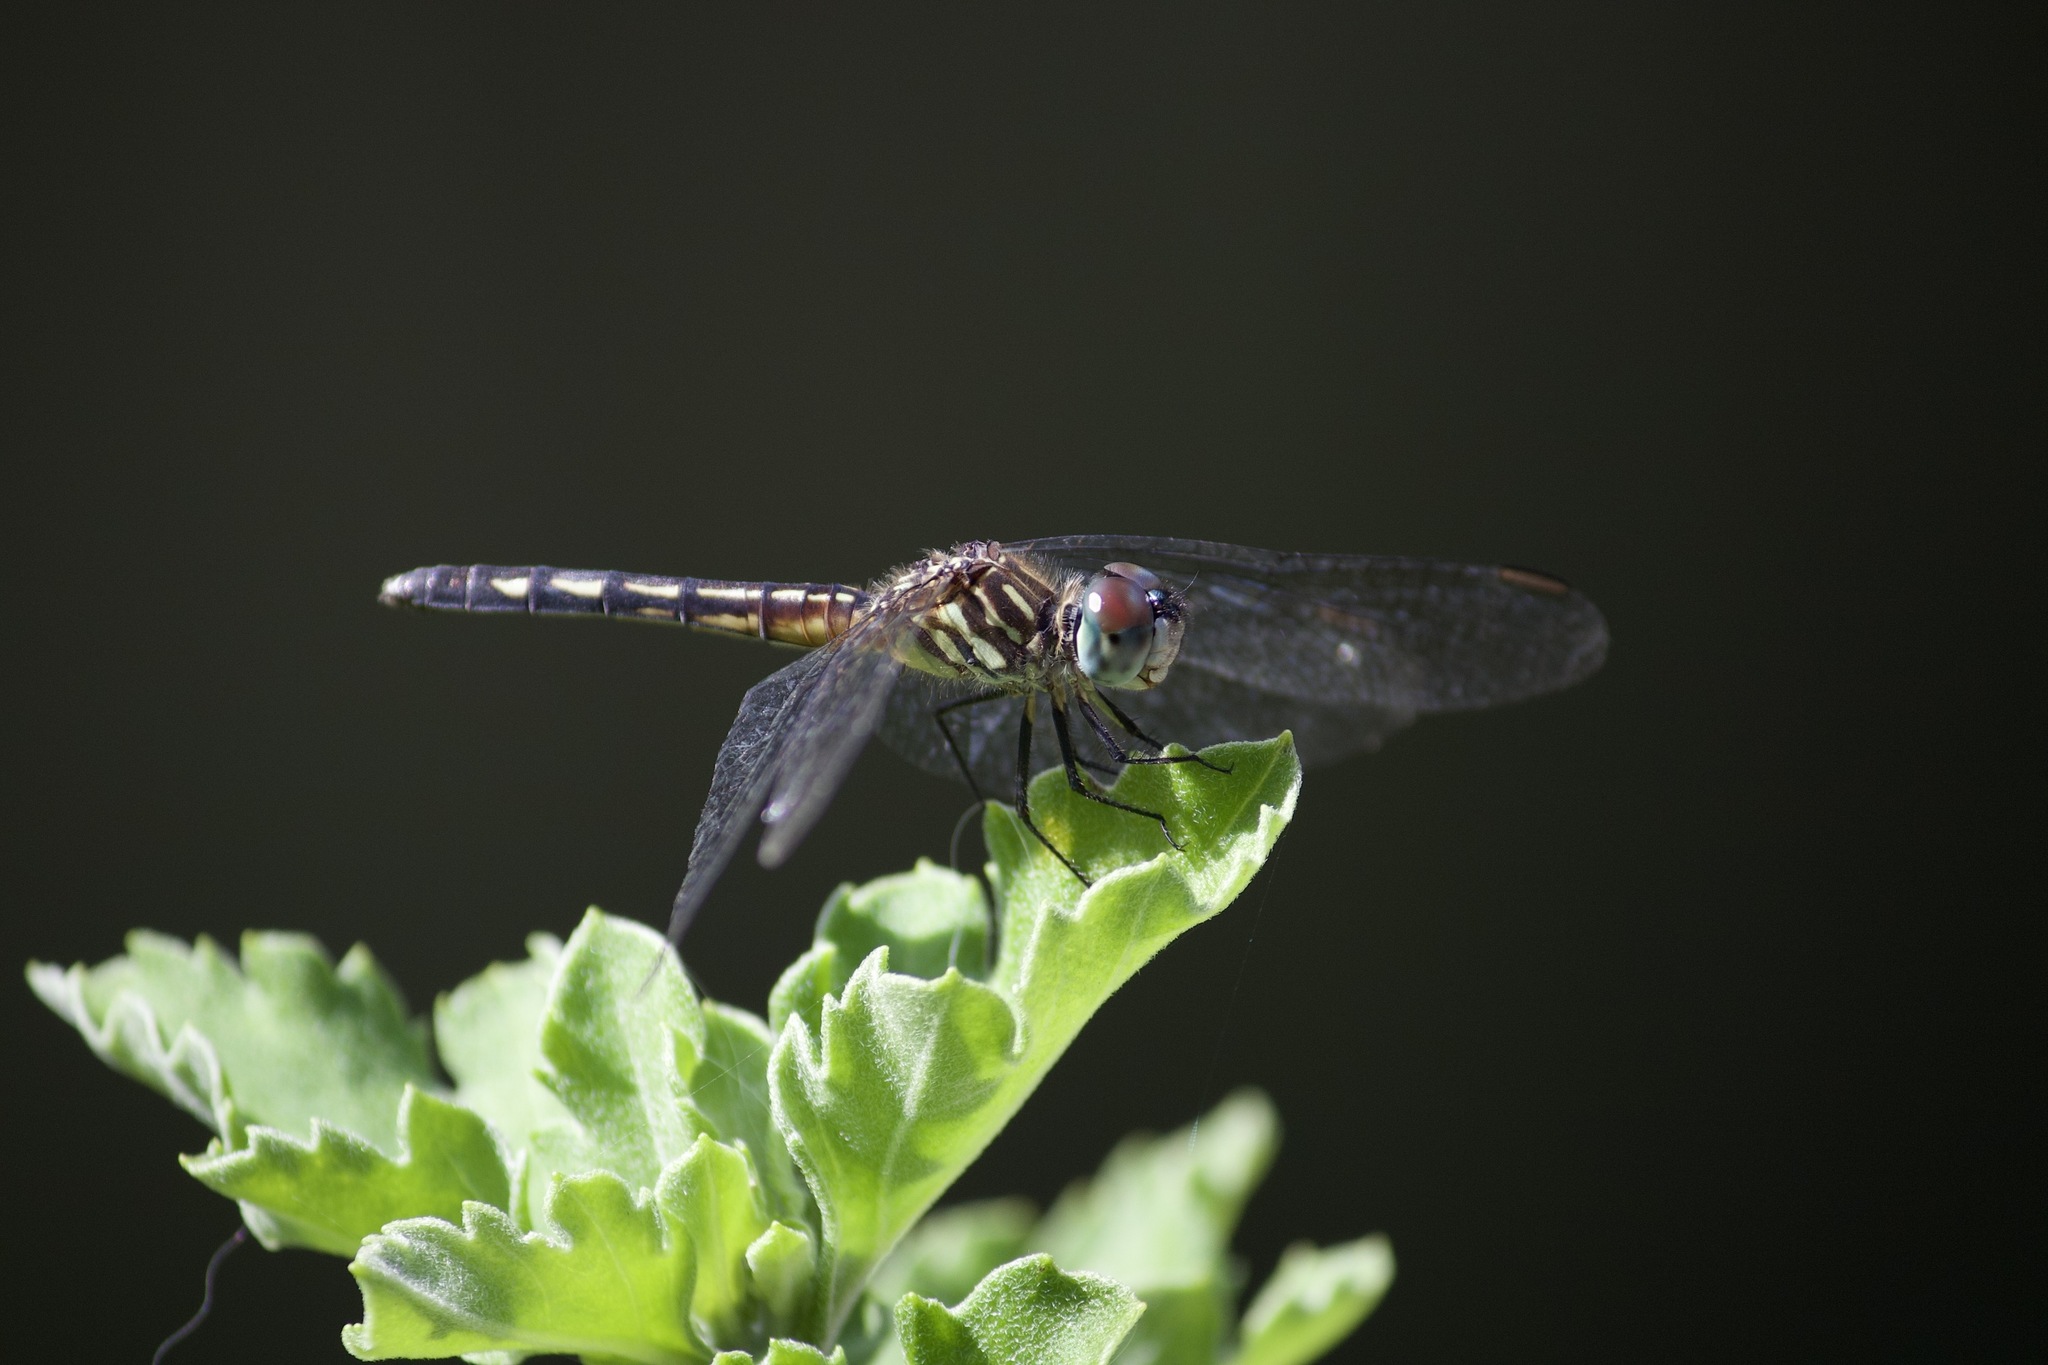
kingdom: Animalia
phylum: Arthropoda
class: Insecta
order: Odonata
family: Libellulidae
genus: Pachydiplax
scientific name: Pachydiplax longipennis
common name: Blue dasher
